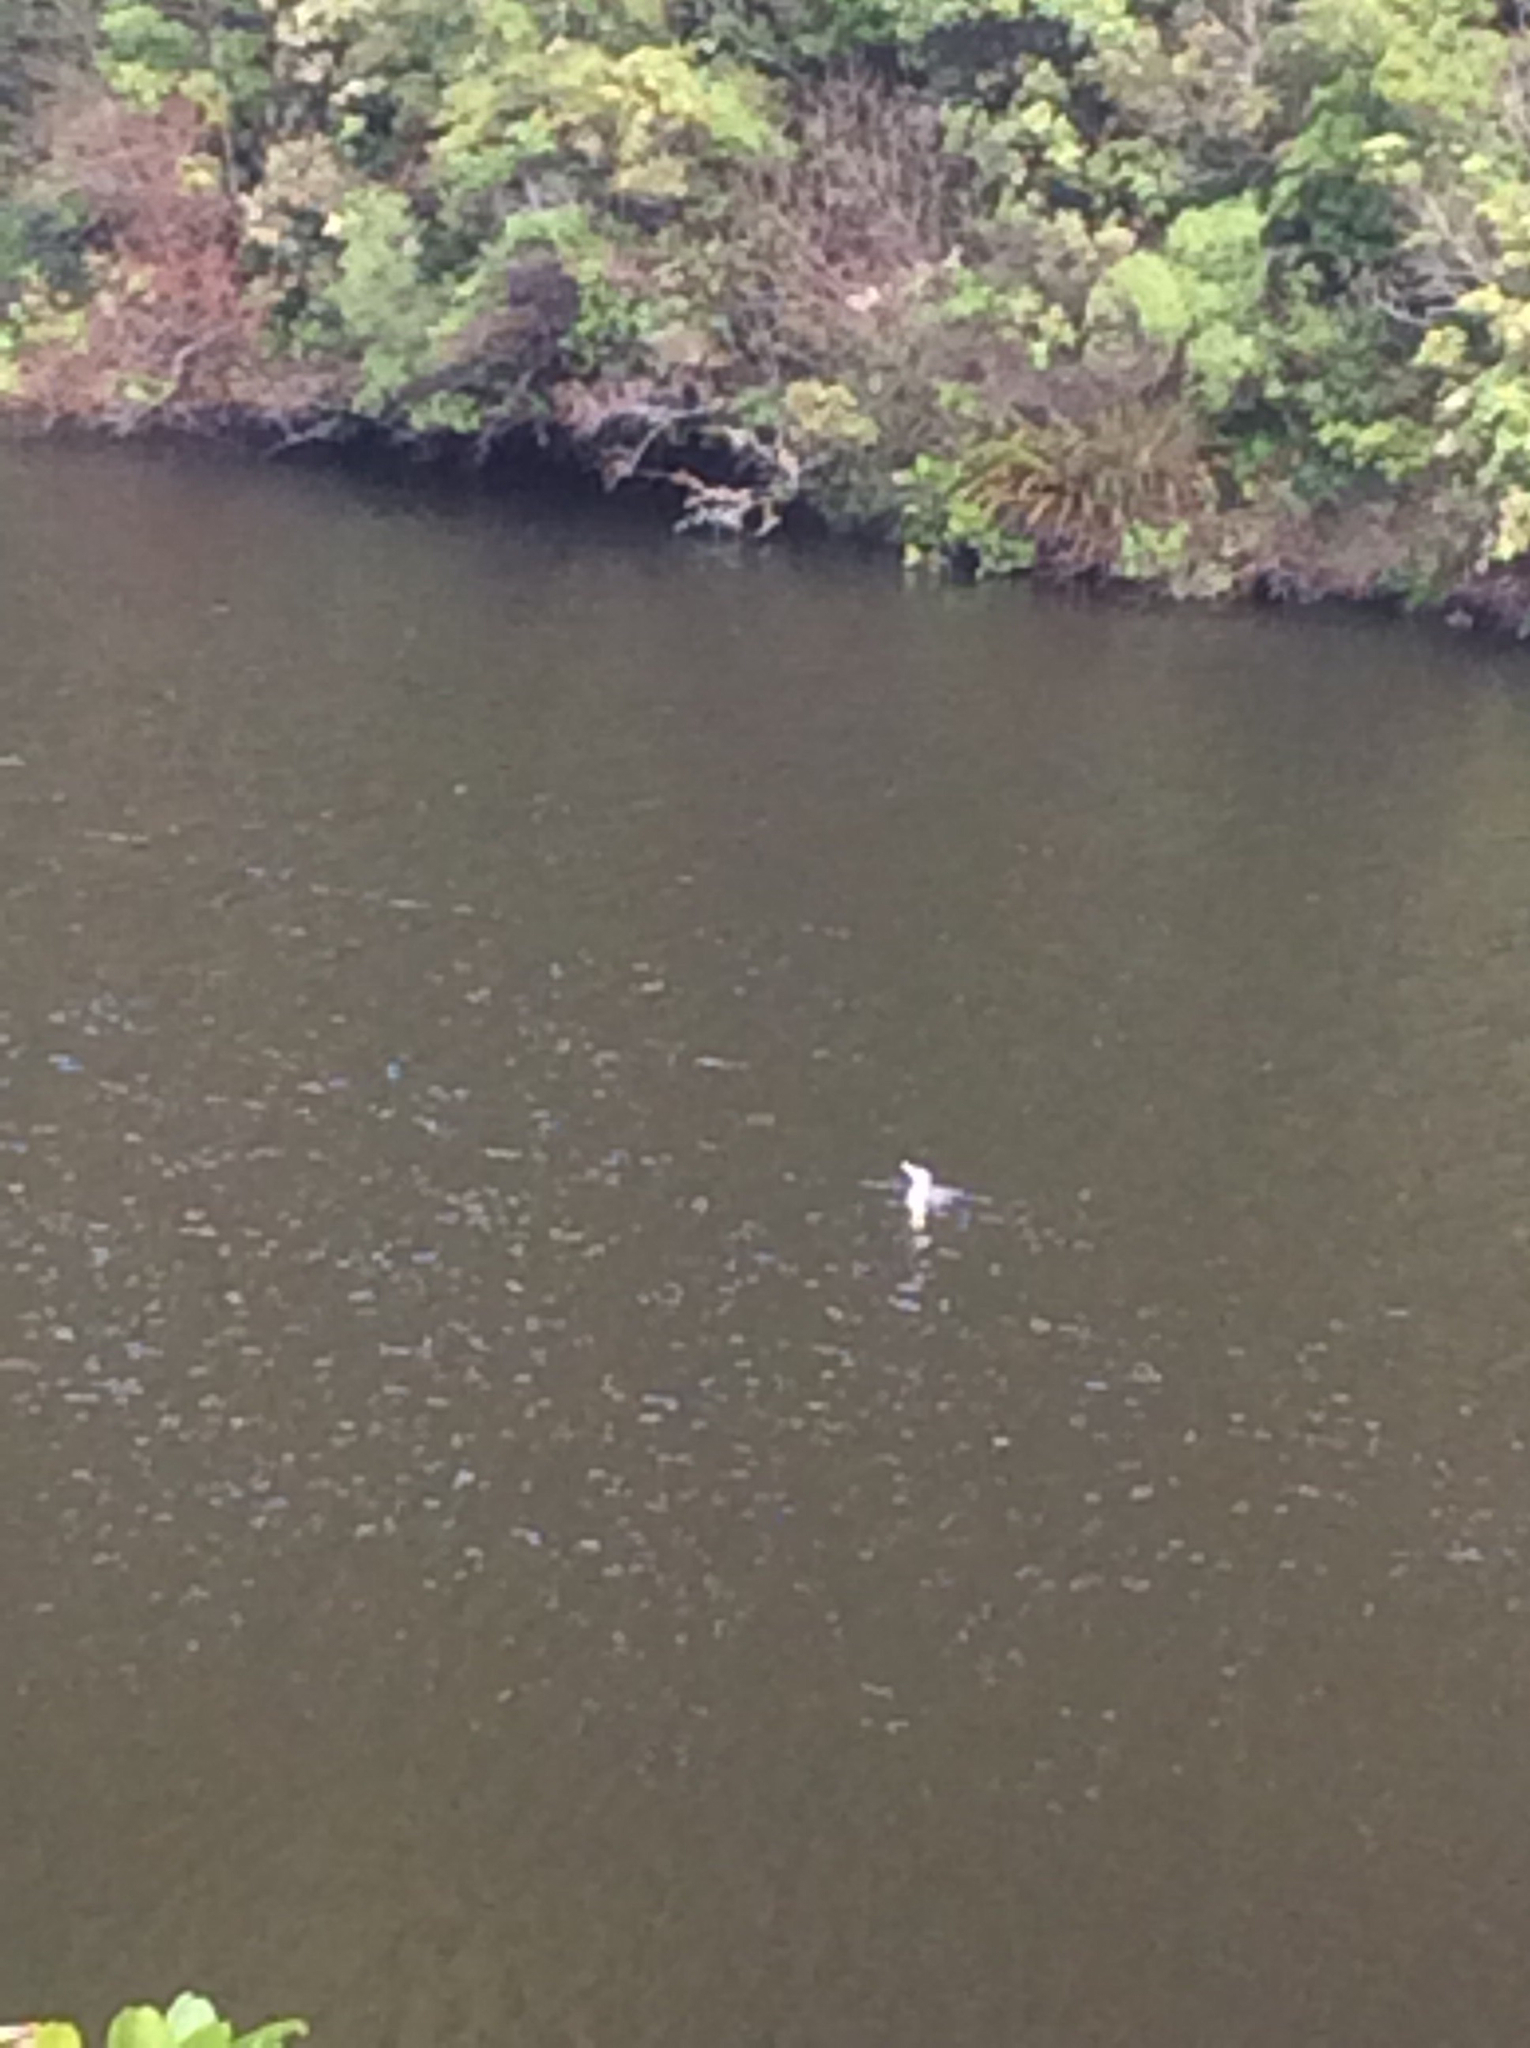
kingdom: Animalia
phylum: Chordata
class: Aves
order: Suliformes
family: Phalacrocoracidae
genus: Phalacrocorax
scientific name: Phalacrocorax varius
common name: Pied cormorant
